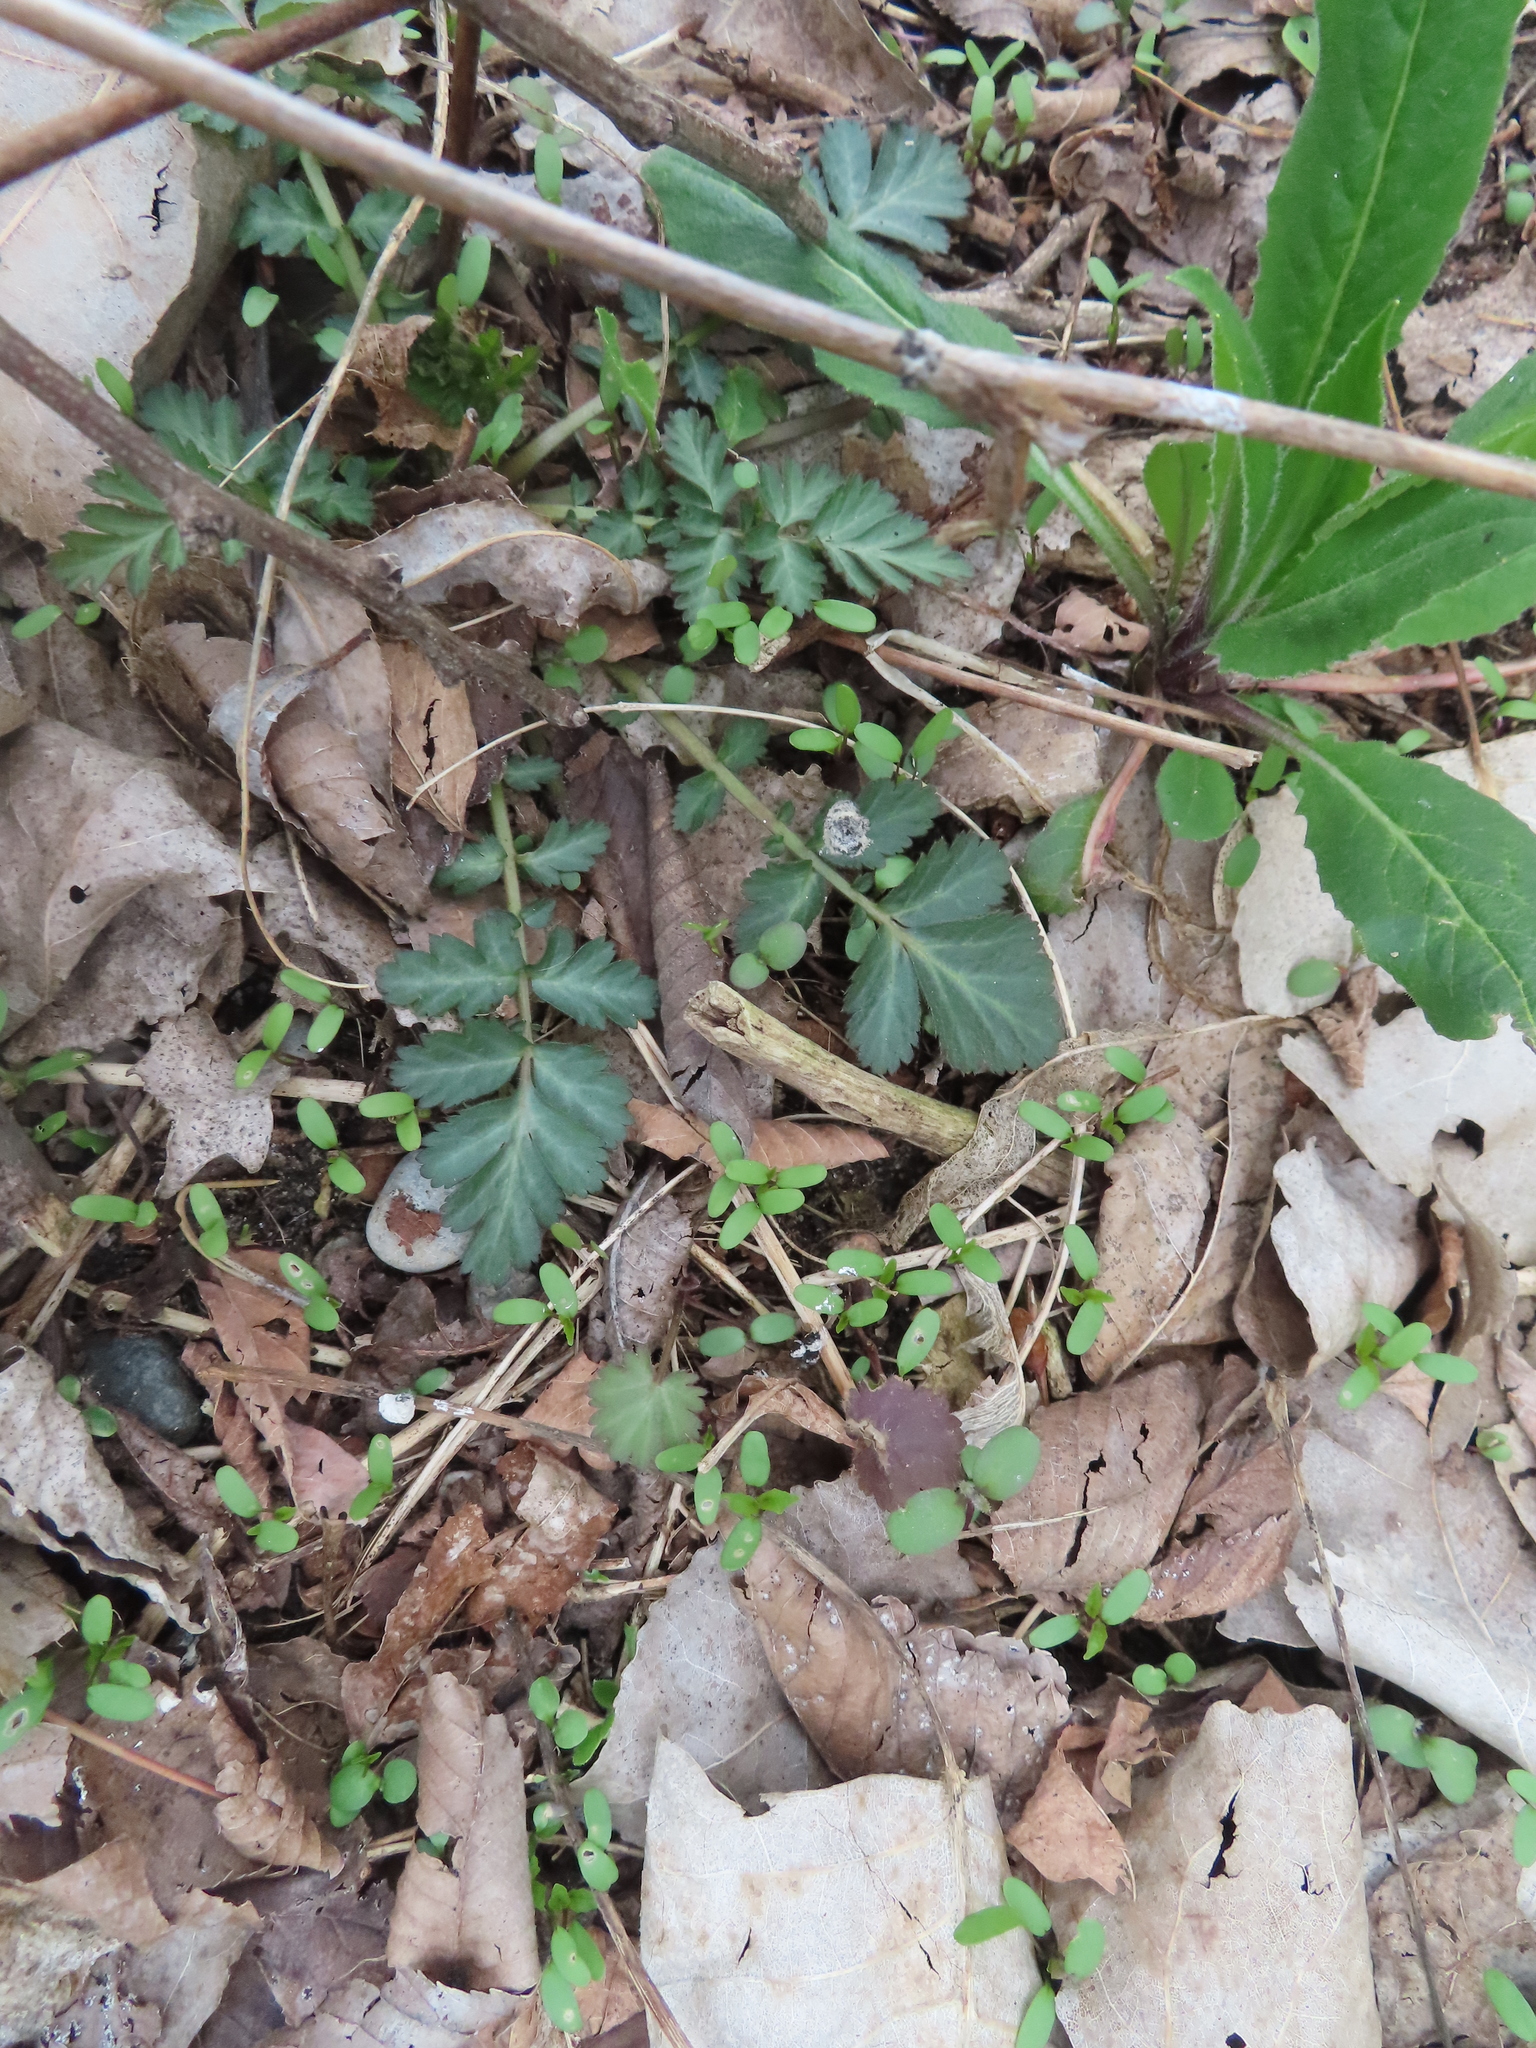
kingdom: Plantae
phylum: Tracheophyta
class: Magnoliopsida
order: Rosales
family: Rosaceae
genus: Geum
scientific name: Geum canadense
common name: White avens
